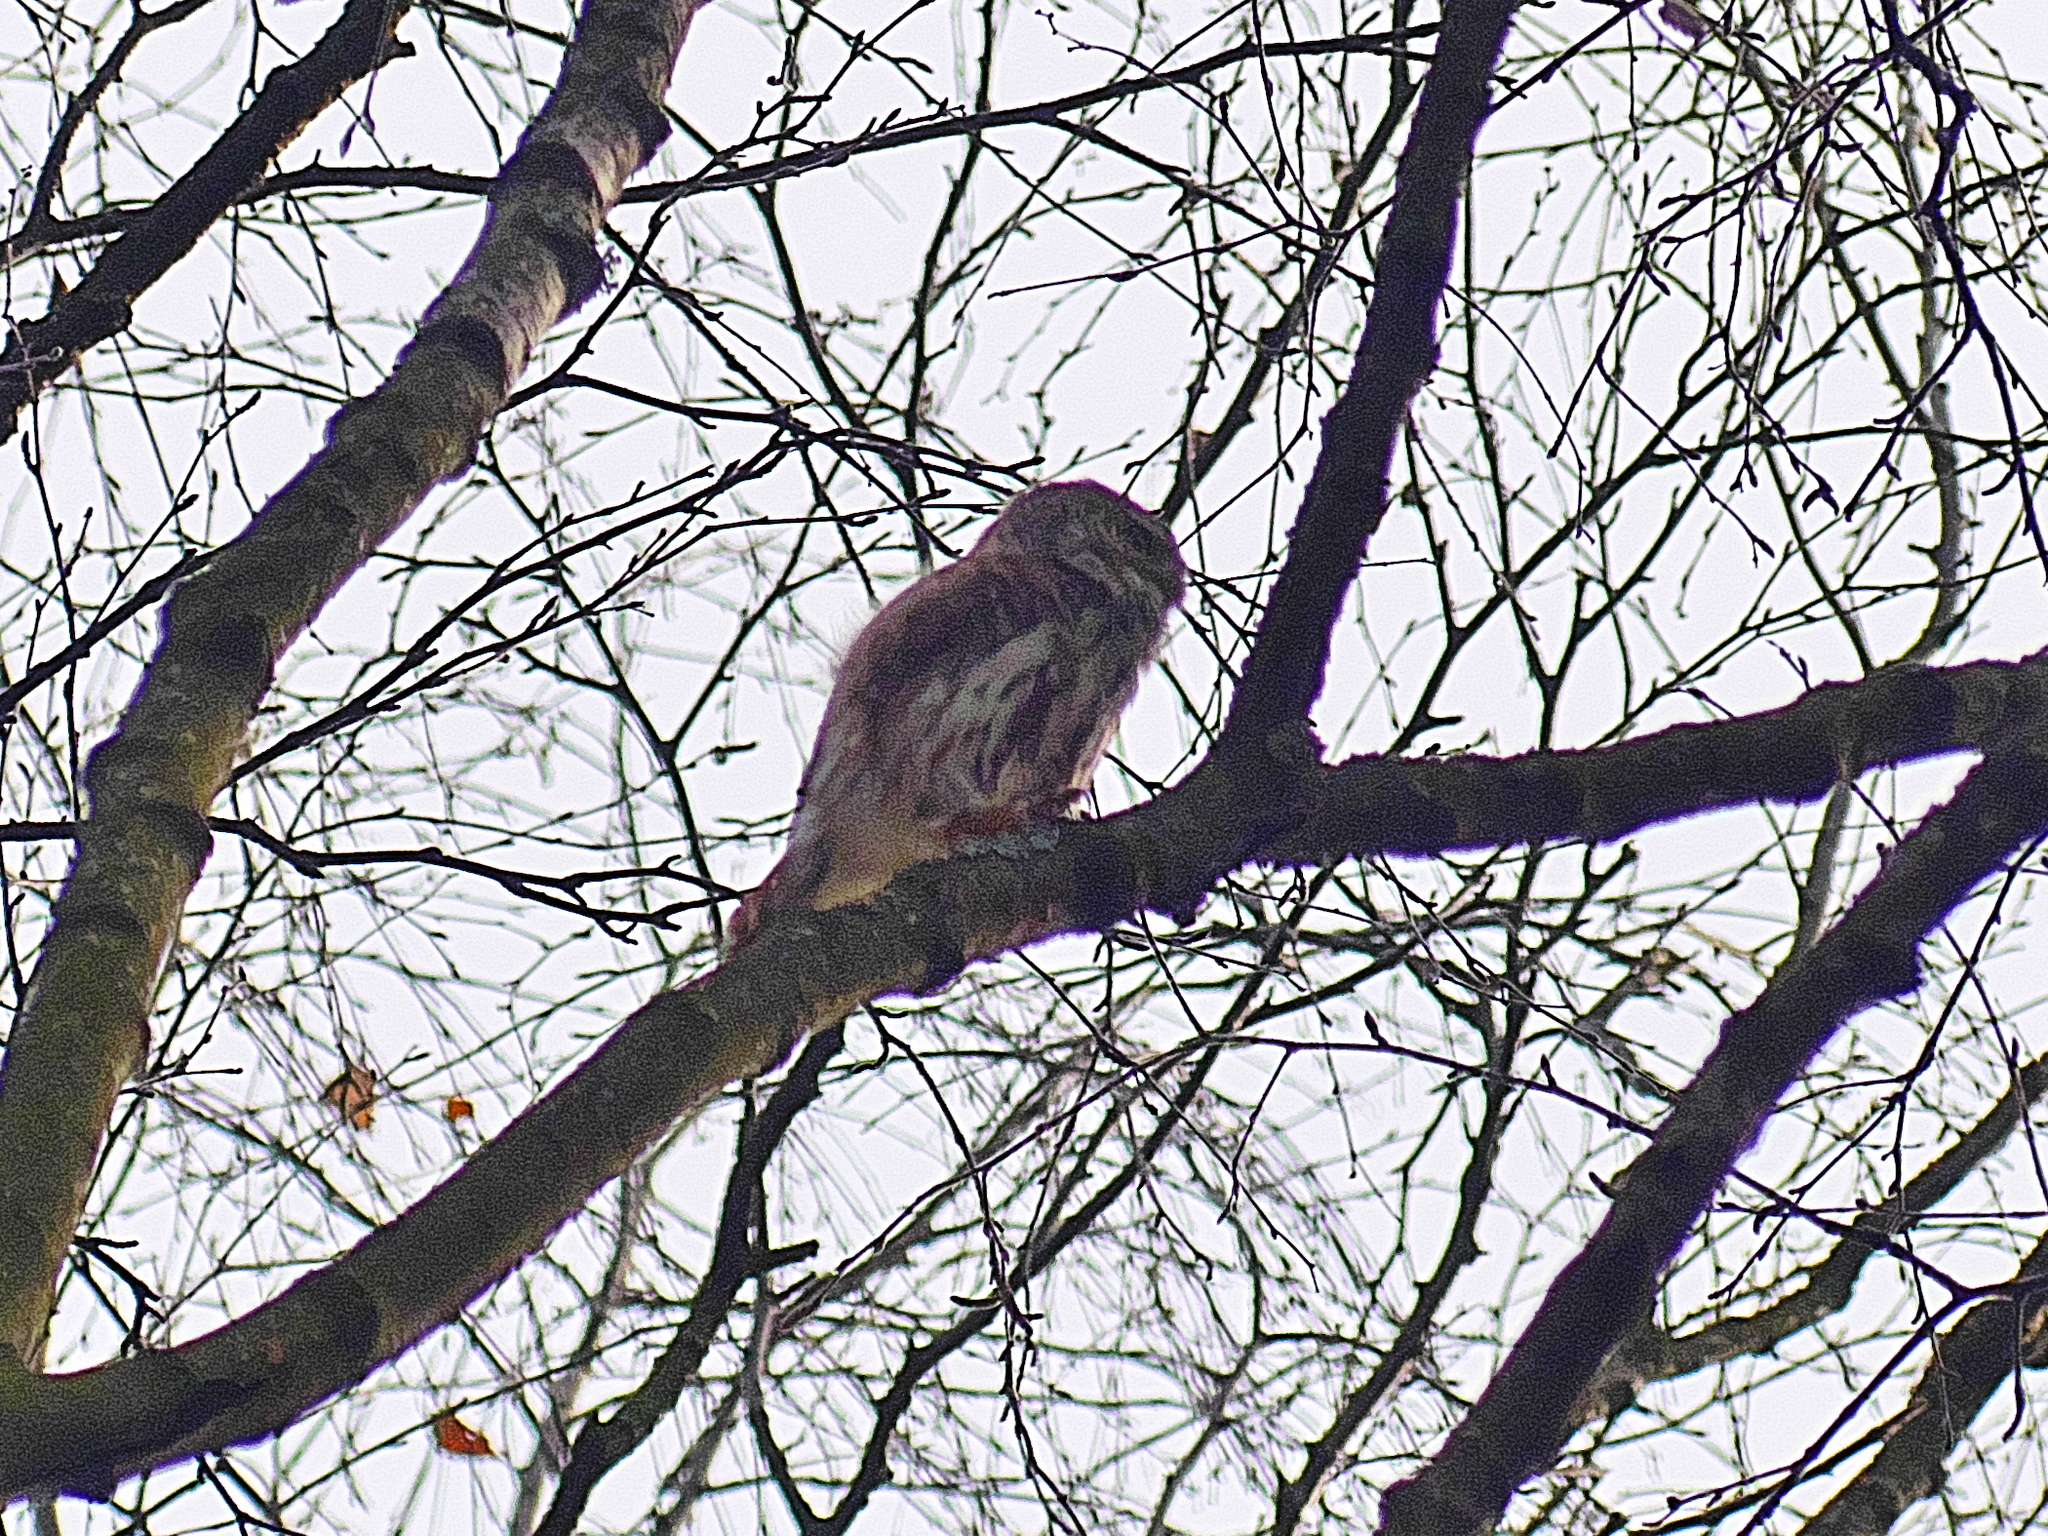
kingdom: Animalia
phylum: Chordata
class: Aves
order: Strigiformes
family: Strigidae
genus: Glaucidium
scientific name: Glaucidium passerinum
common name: Eurasian pygmy owl
